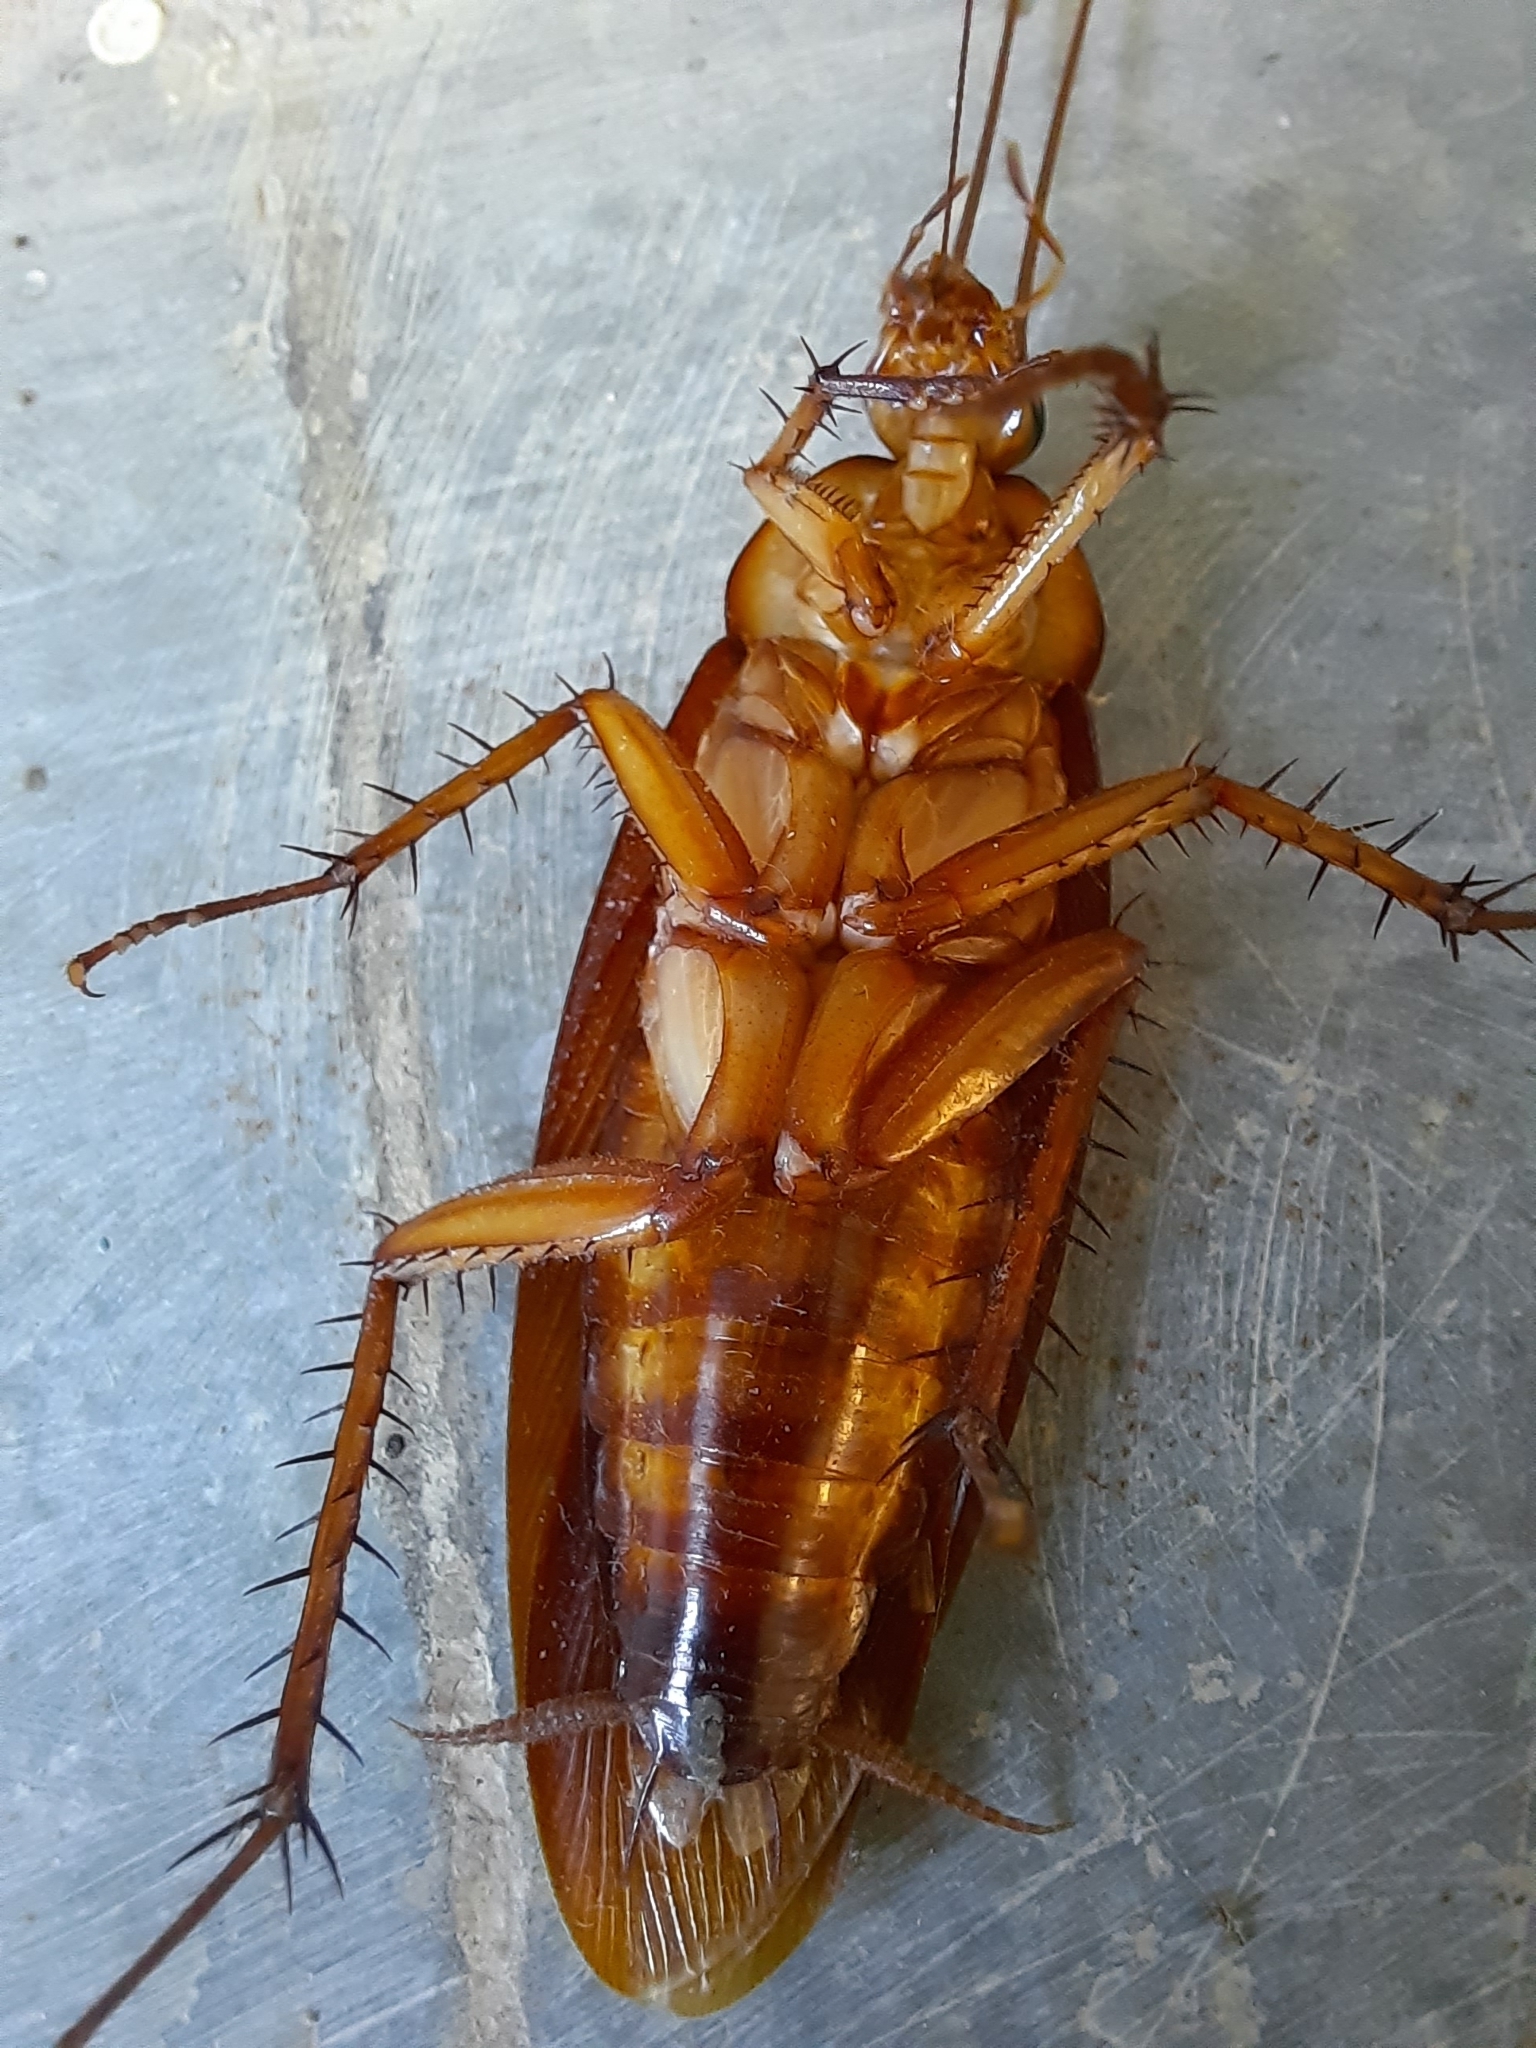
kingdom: Animalia
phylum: Arthropoda
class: Insecta
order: Blattodea
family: Blattidae
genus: Periplaneta
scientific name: Periplaneta americana
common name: American cockroach
